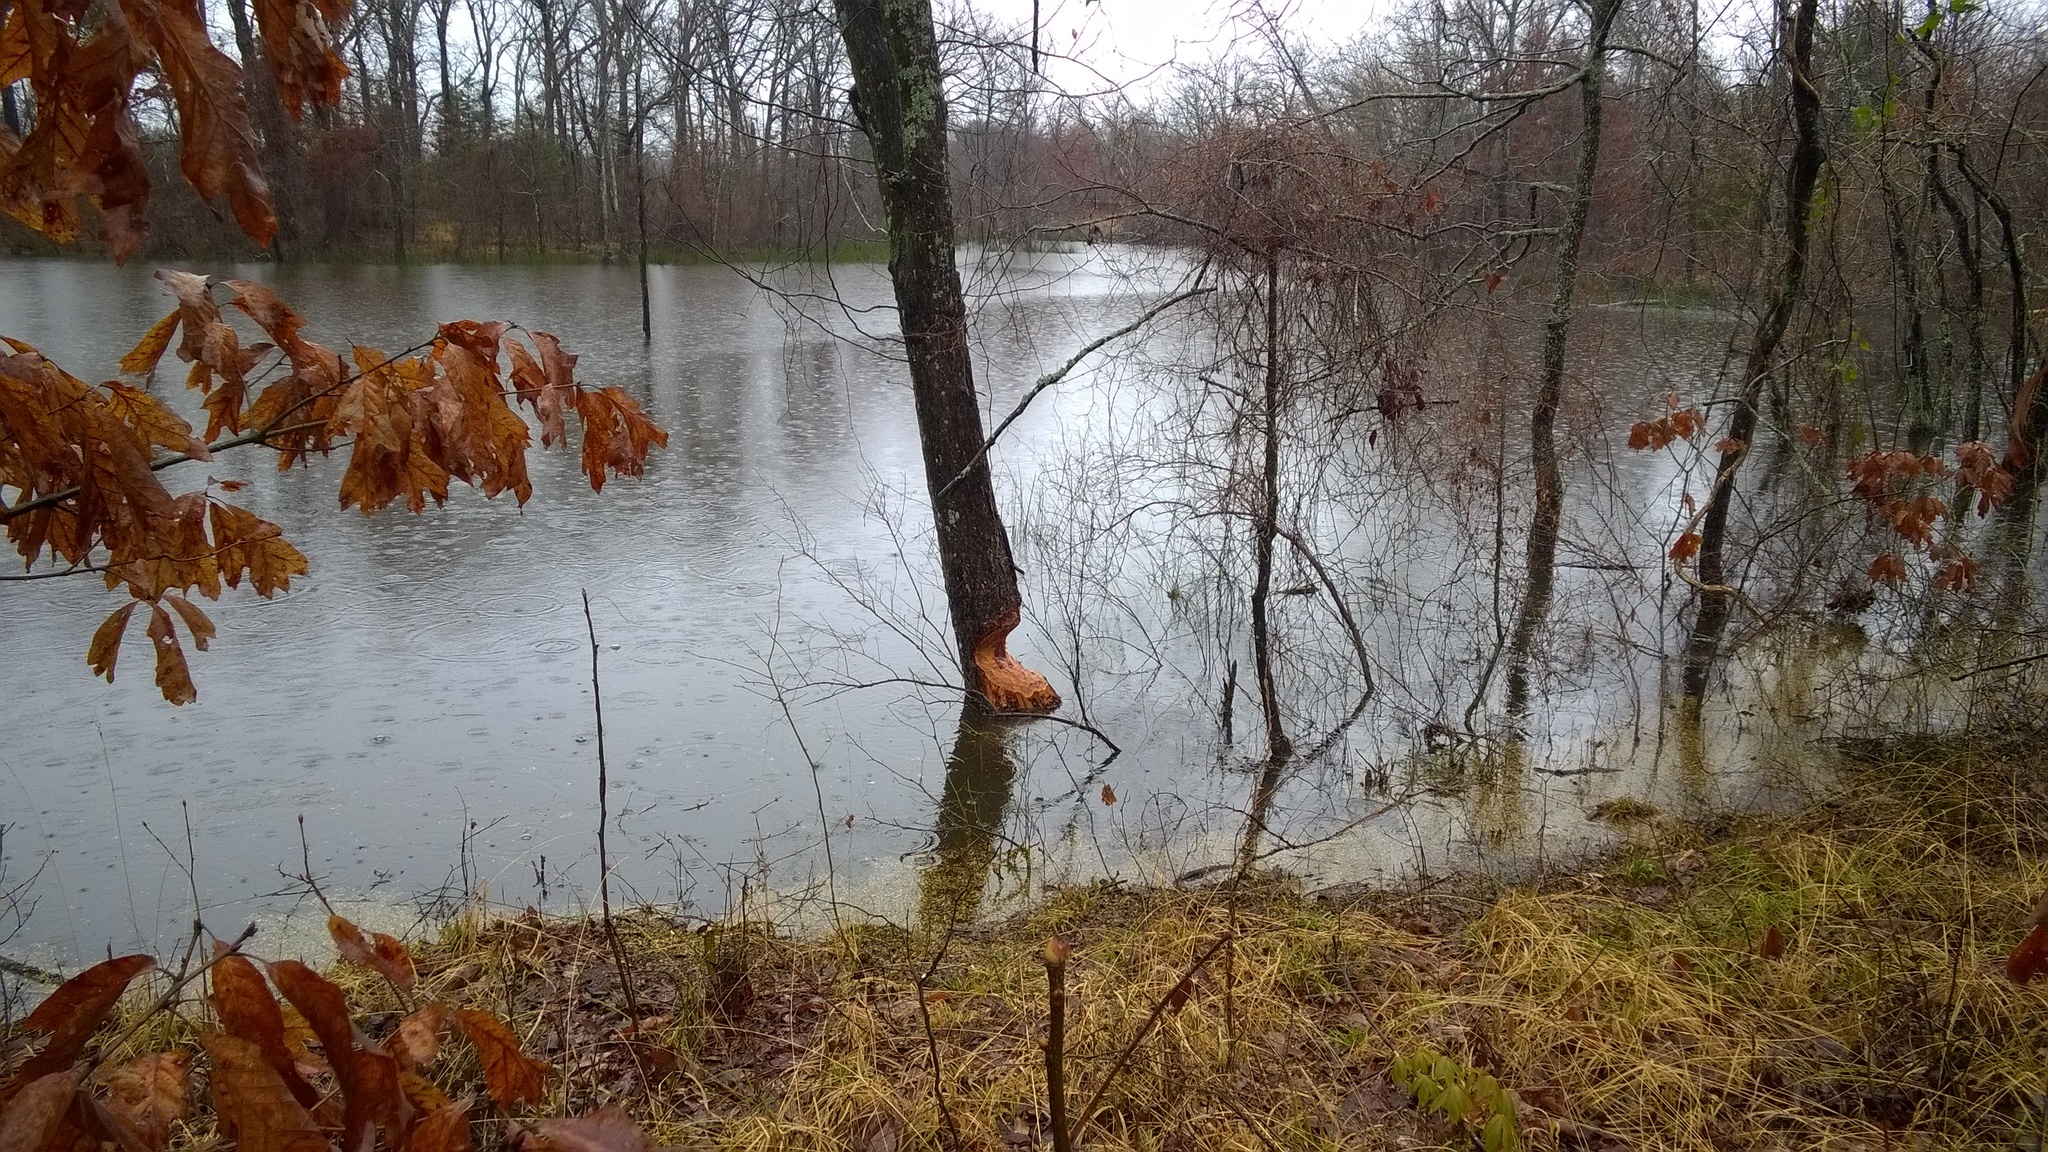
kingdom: Animalia
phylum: Chordata
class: Mammalia
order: Rodentia
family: Castoridae
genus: Castor
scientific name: Castor canadensis
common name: American beaver
